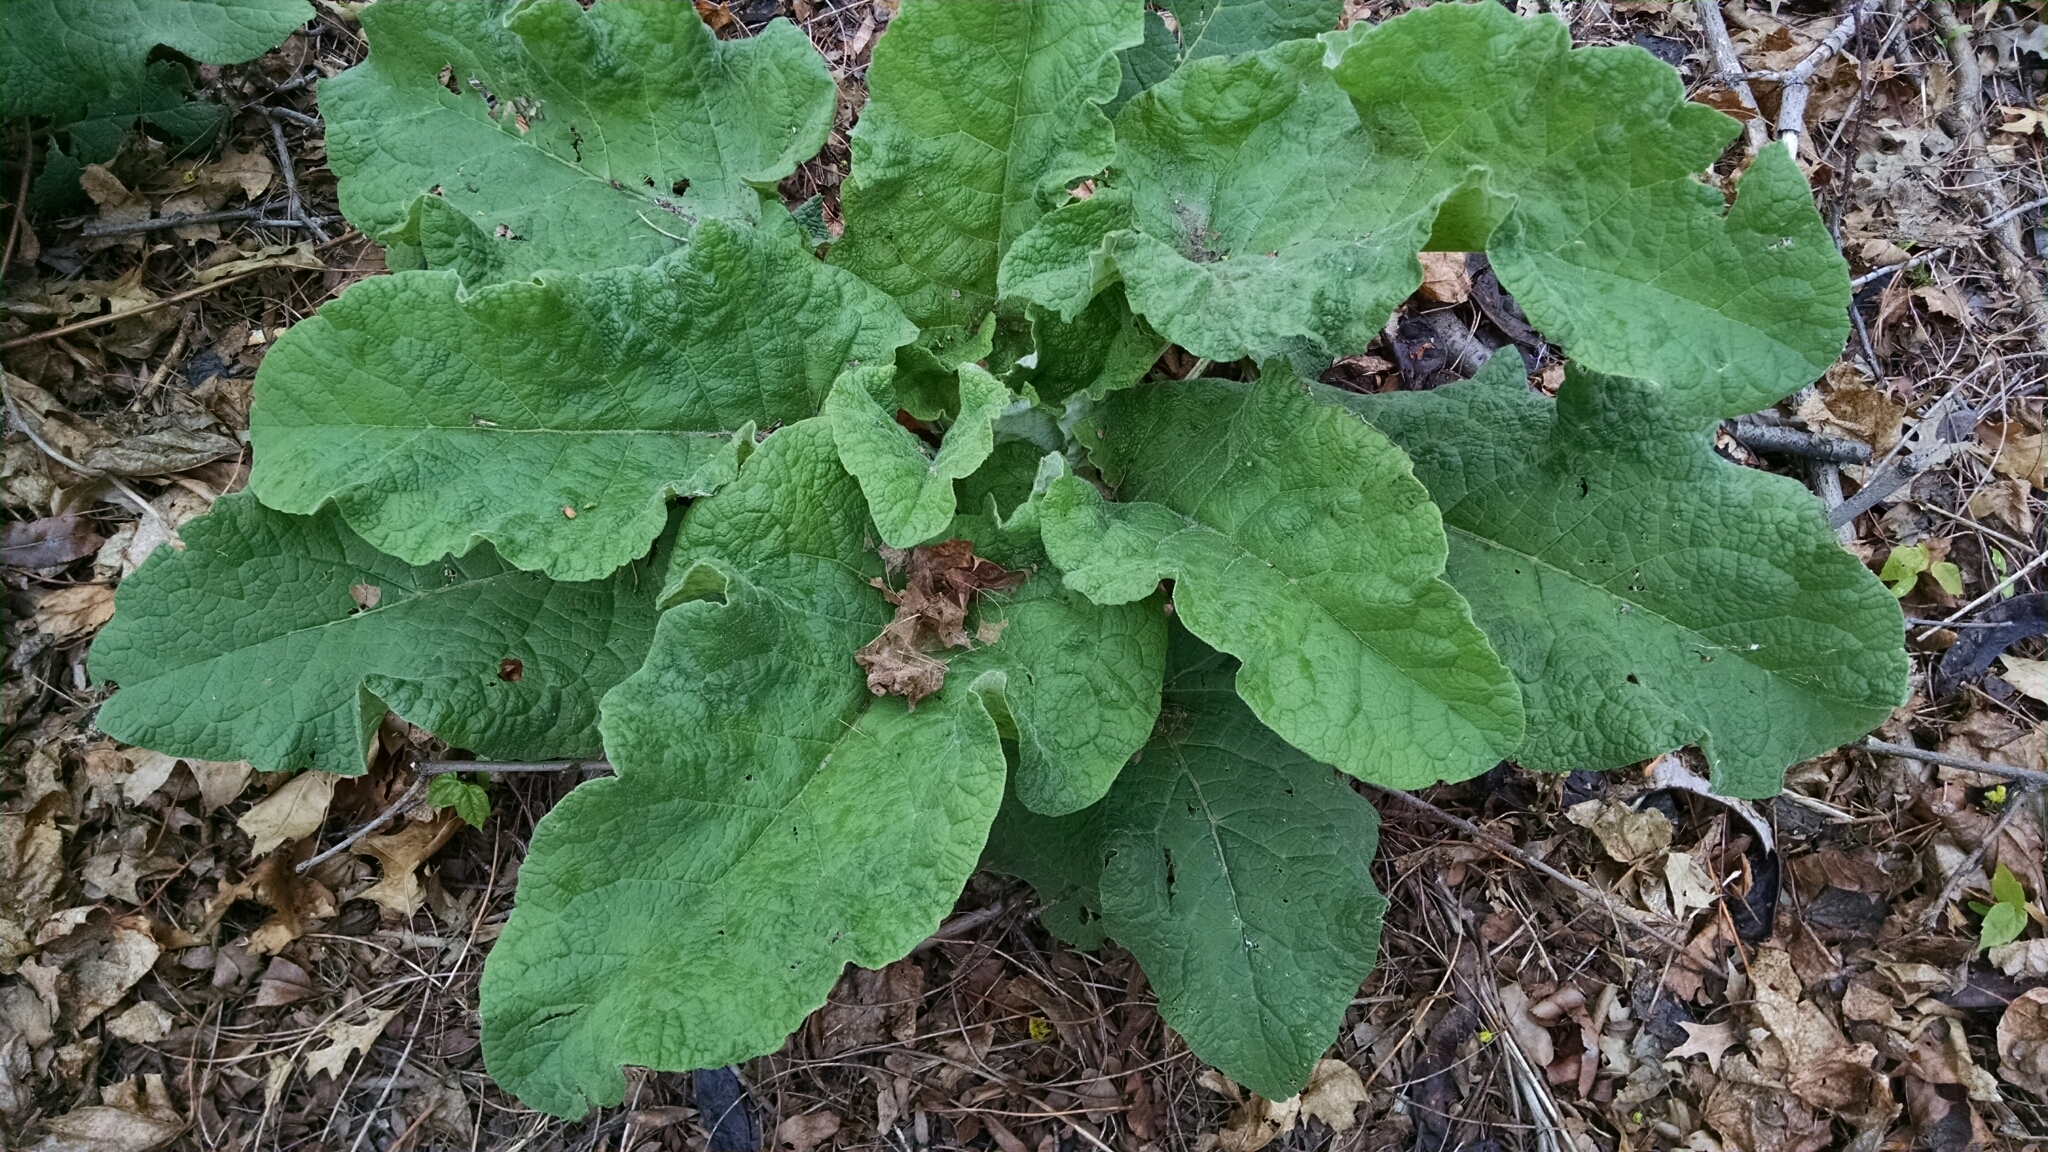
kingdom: Plantae
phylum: Tracheophyta
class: Magnoliopsida
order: Asterales
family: Asteraceae
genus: Arctium
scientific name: Arctium
